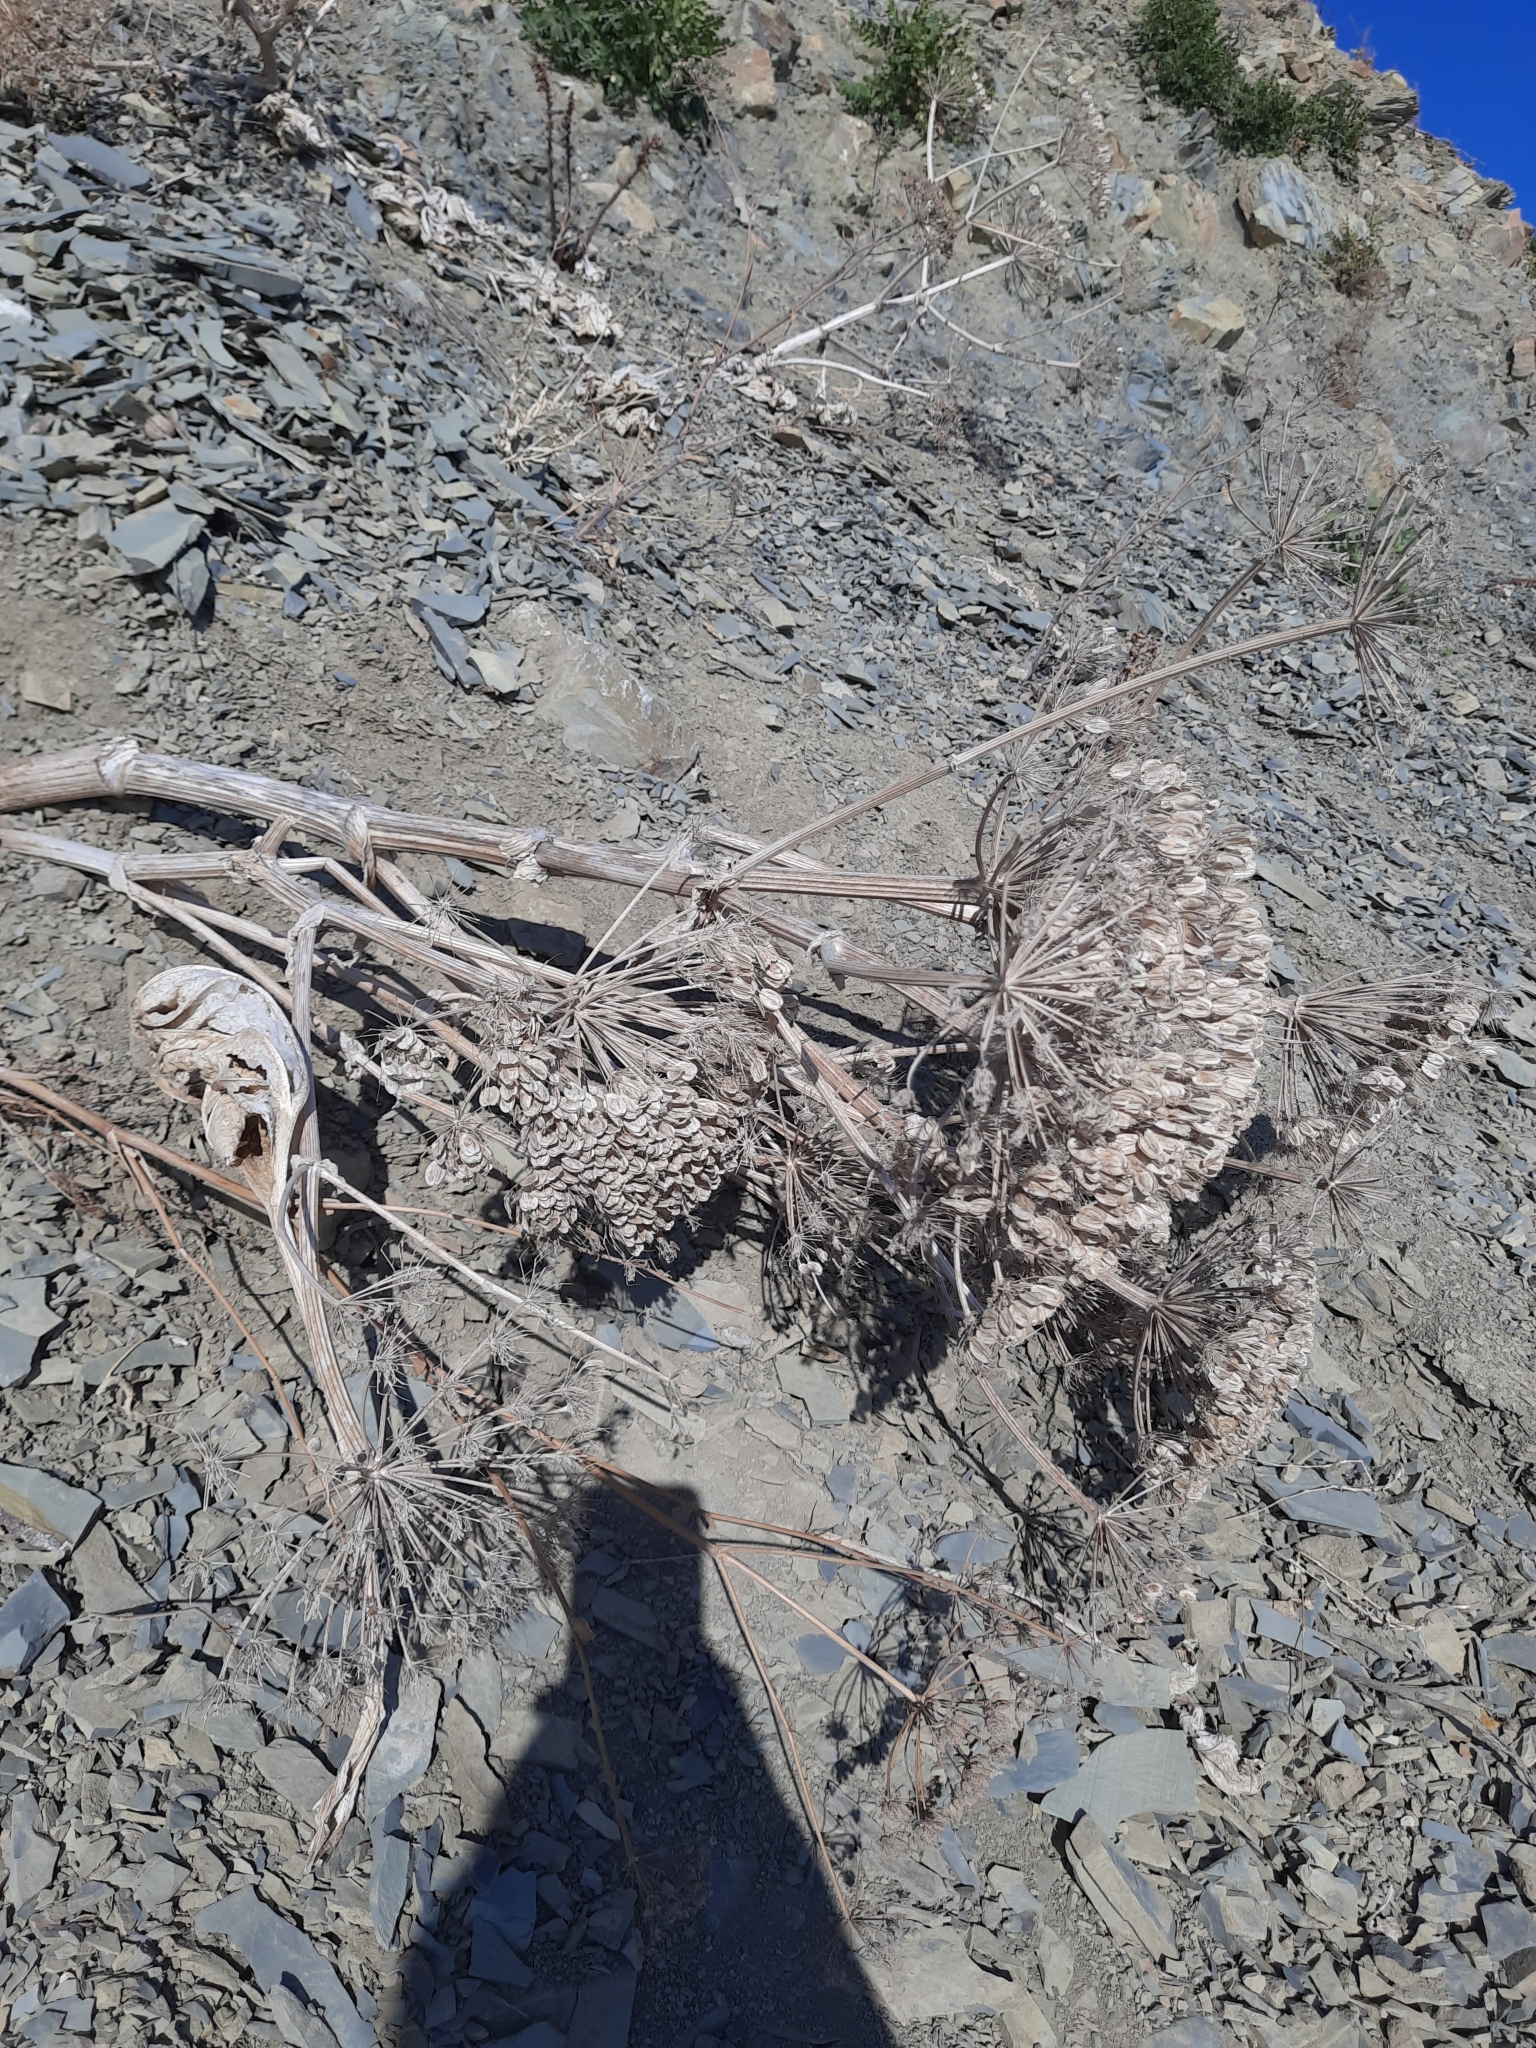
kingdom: Plantae
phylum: Tracheophyta
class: Magnoliopsida
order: Apiales
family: Apiaceae
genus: Heracleum
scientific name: Heracleum stevenii
